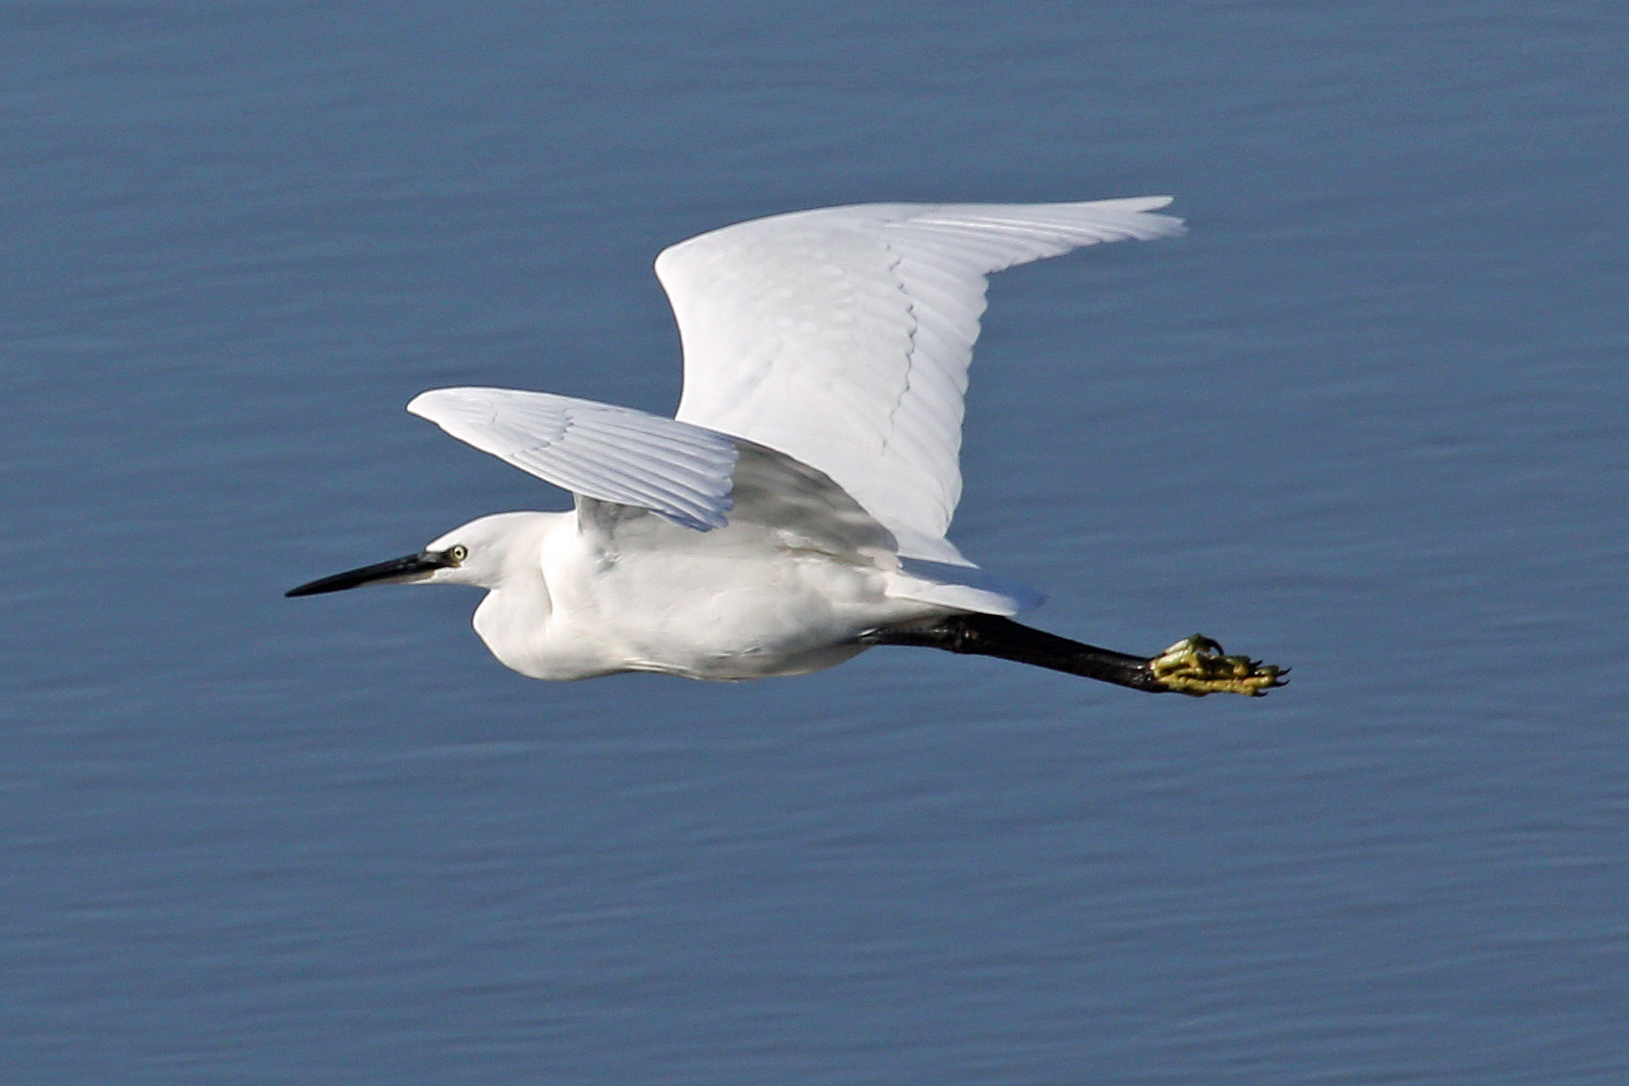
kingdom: Animalia
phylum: Chordata
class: Aves
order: Pelecaniformes
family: Ardeidae
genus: Egretta
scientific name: Egretta garzetta
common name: Little egret
